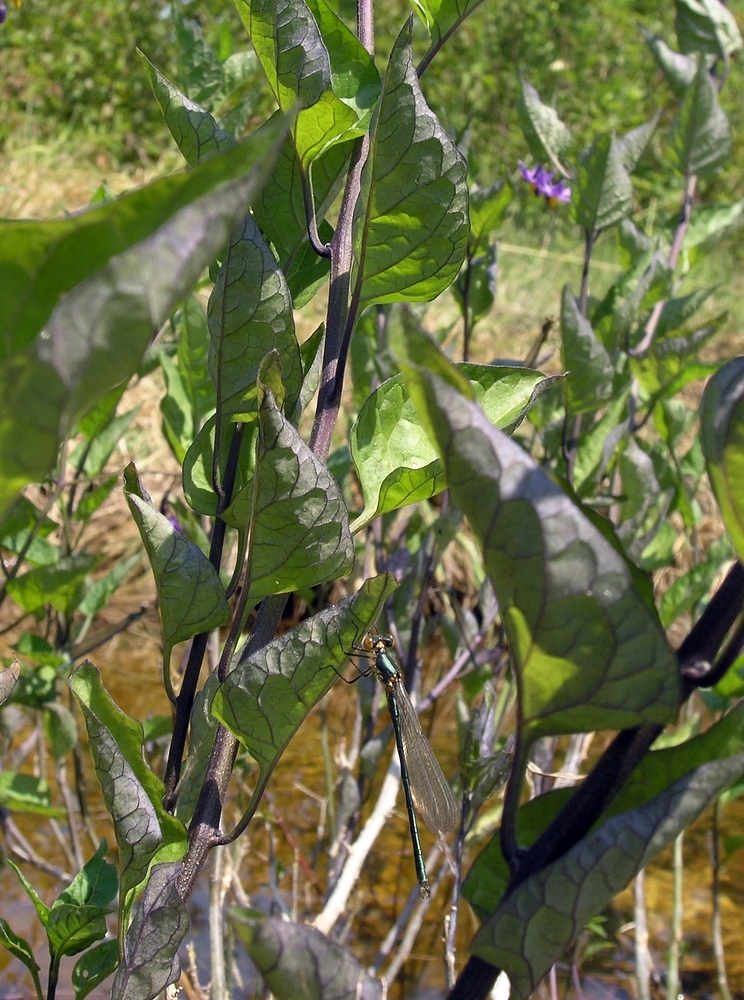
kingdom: Animalia
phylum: Arthropoda
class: Insecta
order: Odonata
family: Lestidae
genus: Chalcolestes
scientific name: Chalcolestes viridis
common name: Green emerald damselfly
